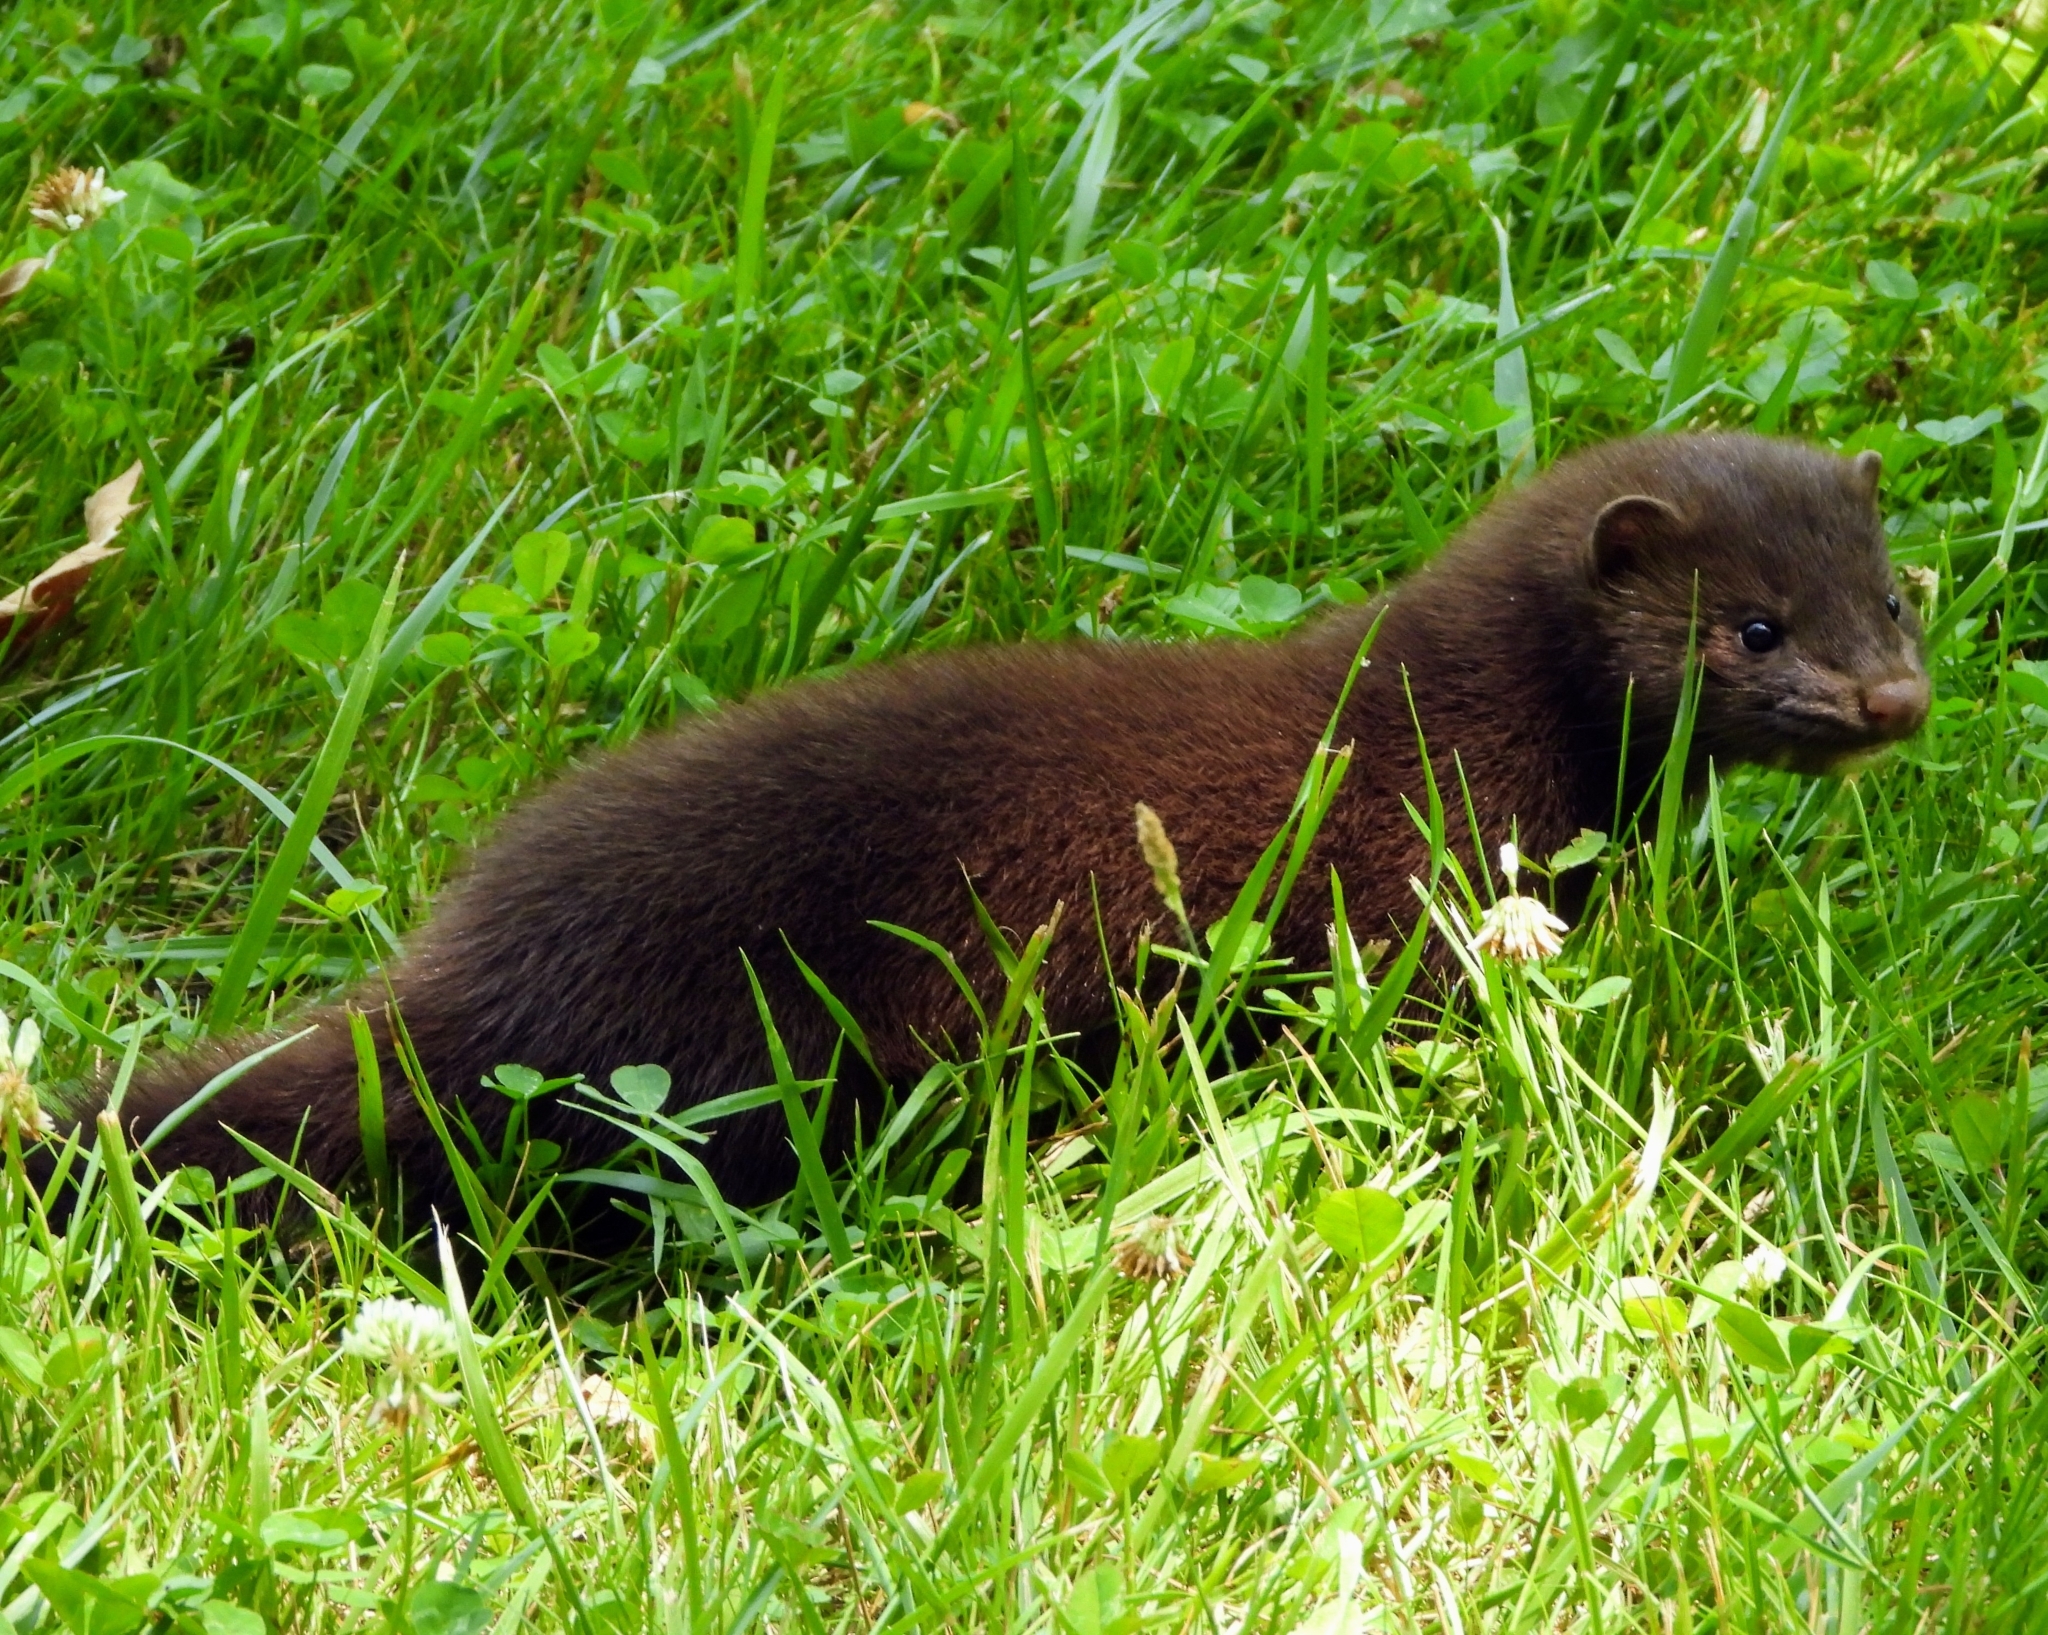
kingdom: Animalia
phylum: Chordata
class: Mammalia
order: Carnivora
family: Mustelidae
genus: Mustela
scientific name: Mustela
